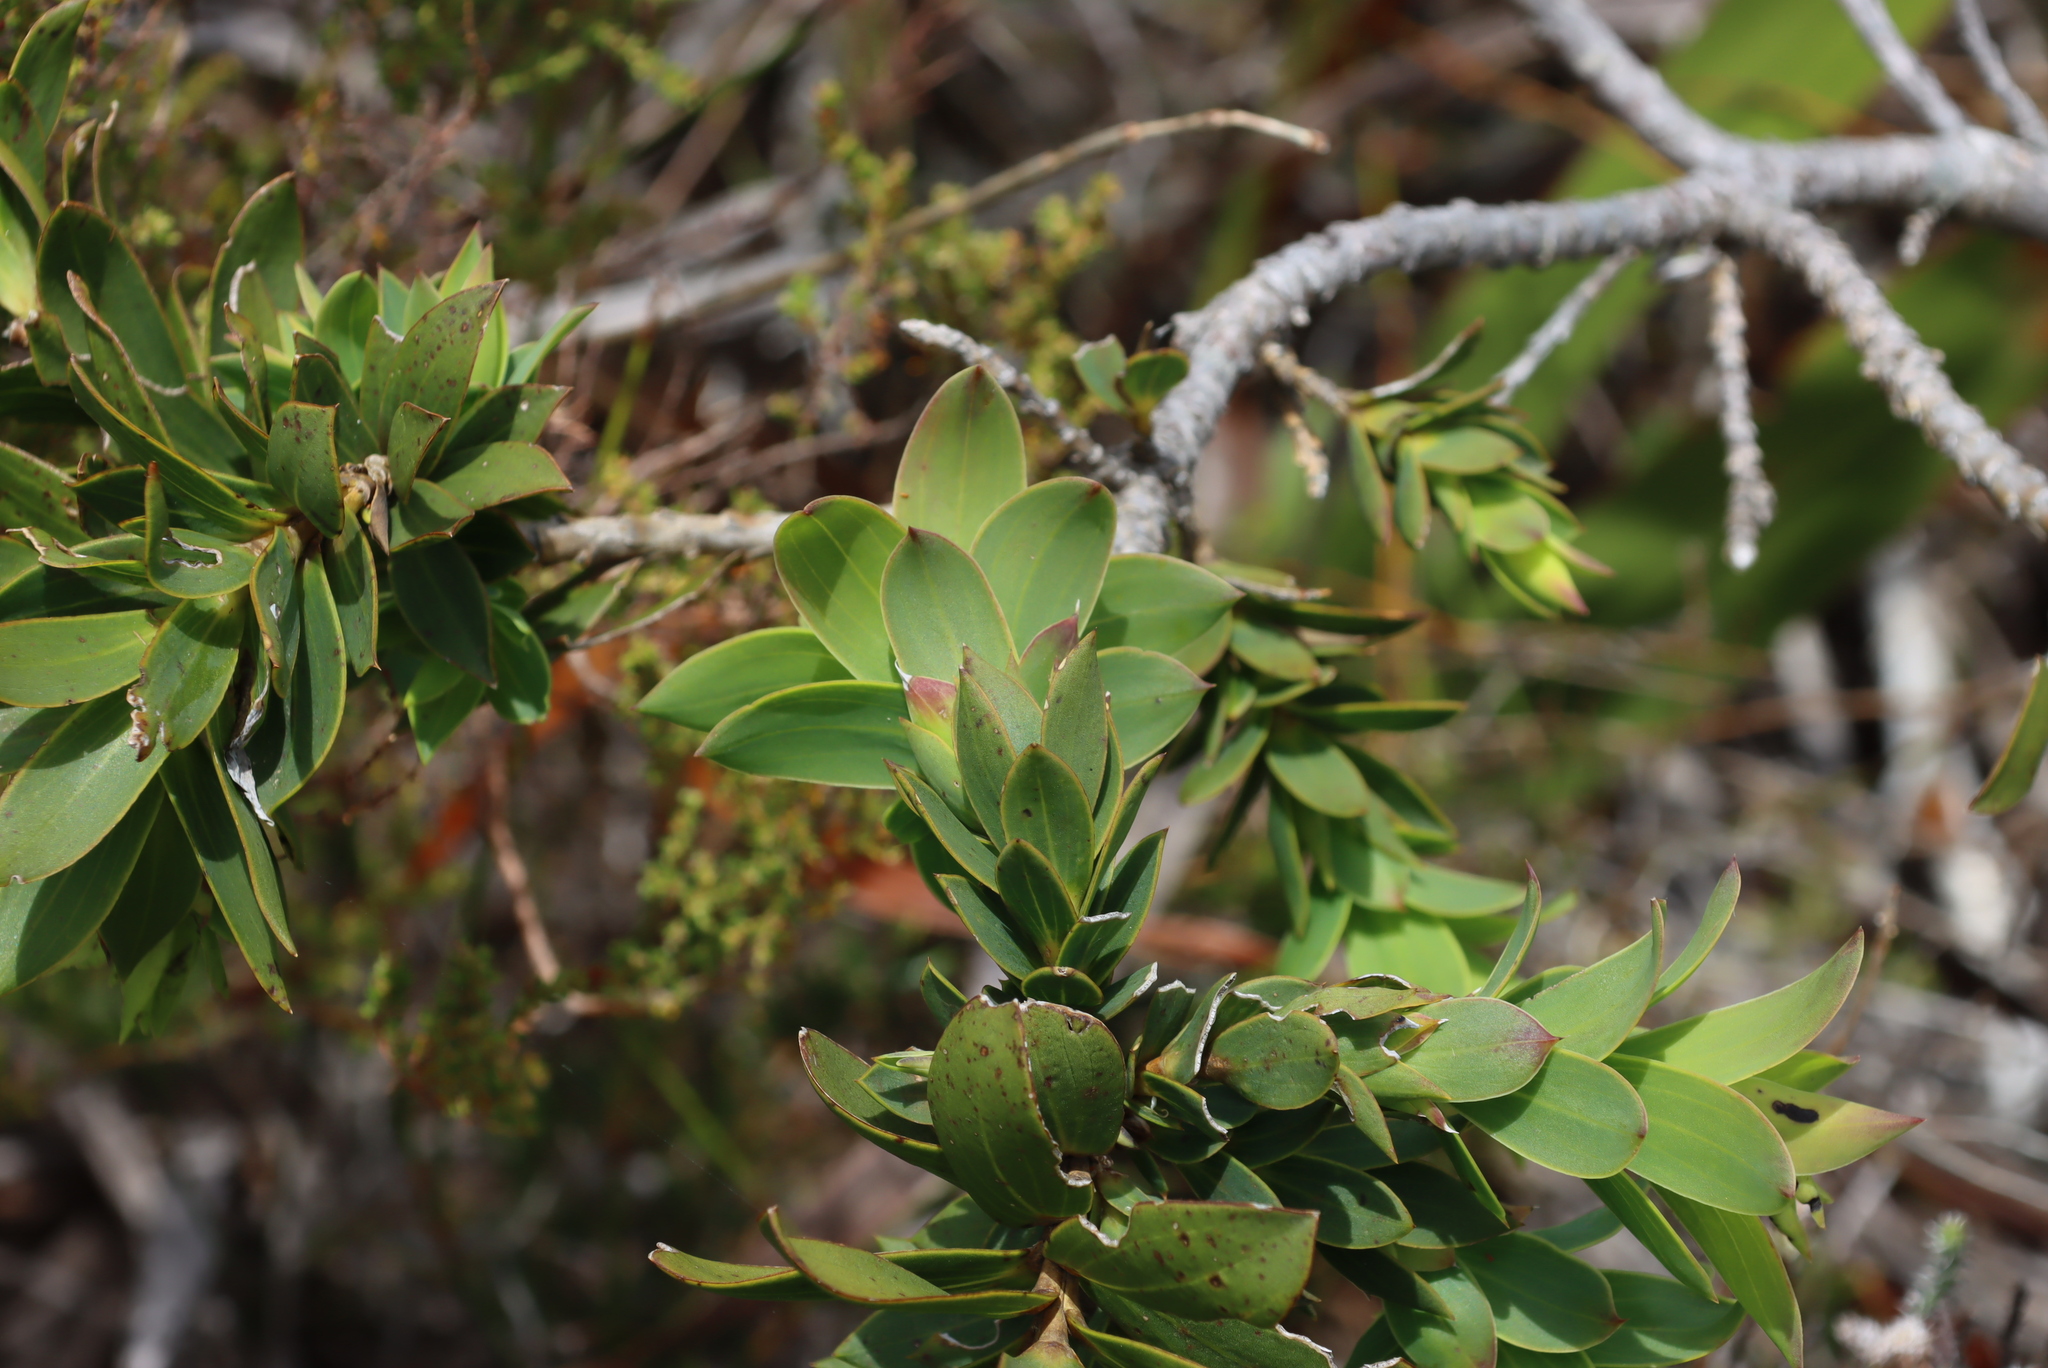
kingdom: Plantae
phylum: Tracheophyta
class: Magnoliopsida
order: Fabales
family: Fabaceae
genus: Liparia
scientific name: Liparia splendens
